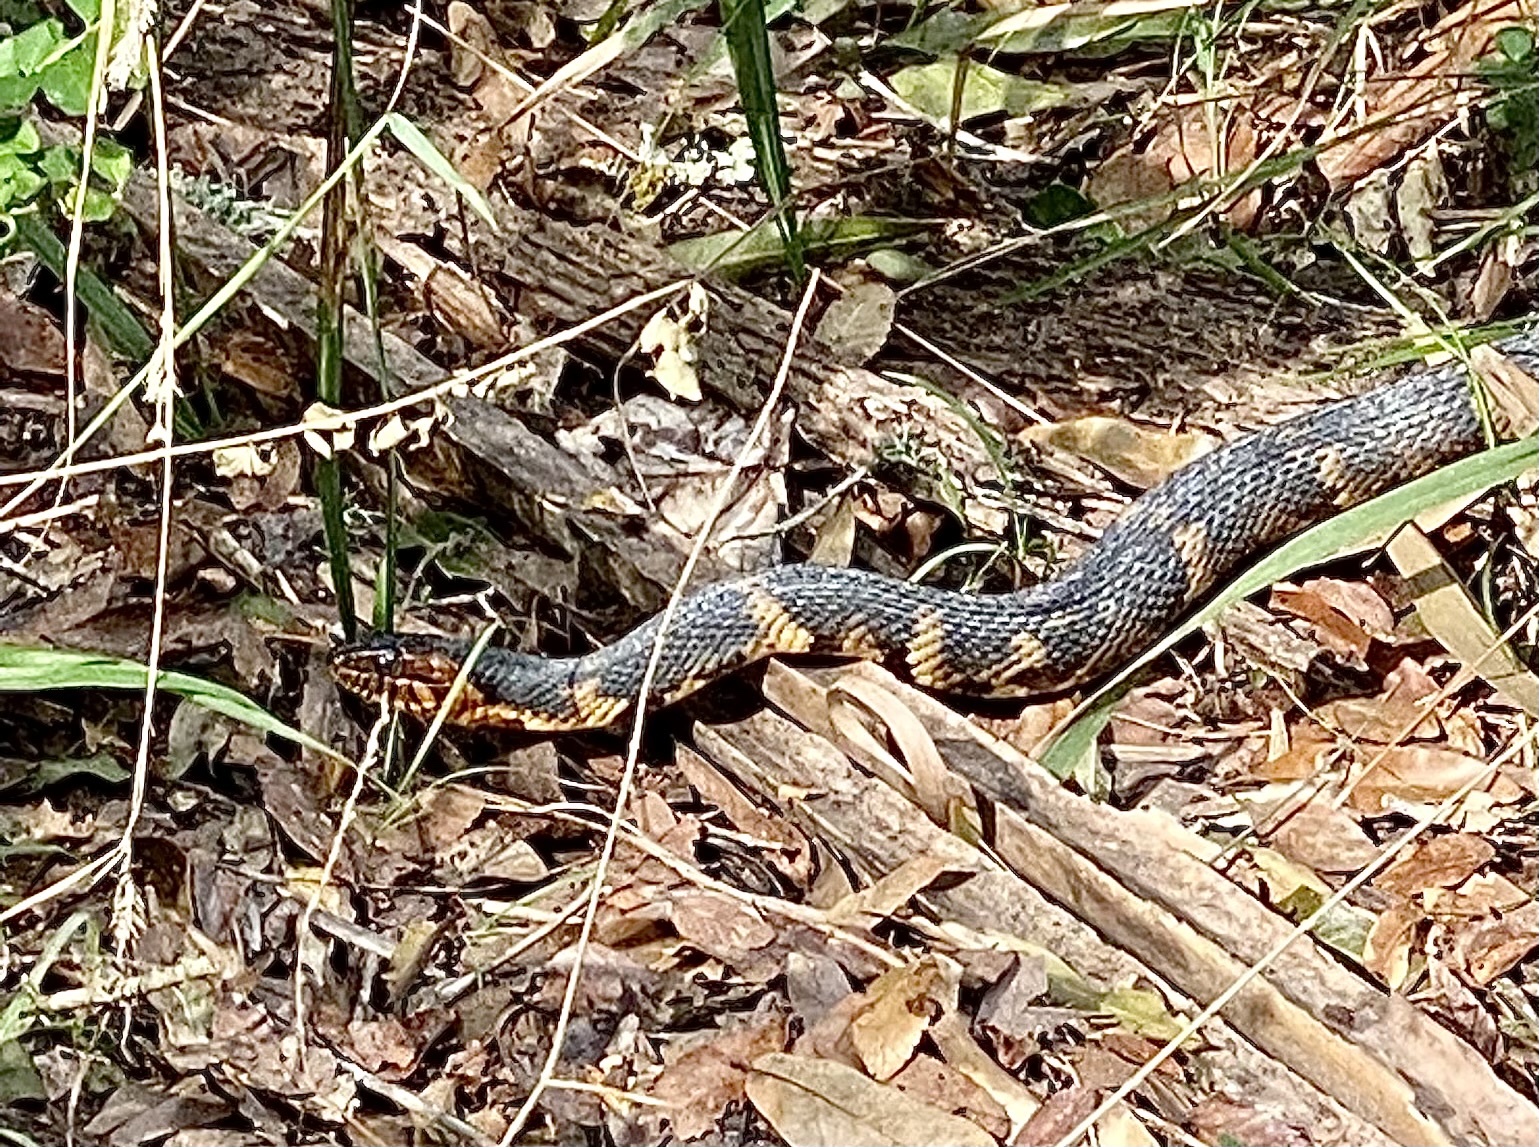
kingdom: Animalia
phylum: Chordata
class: Squamata
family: Colubridae
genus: Nerodia
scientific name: Nerodia fasciata
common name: Southern water snake
